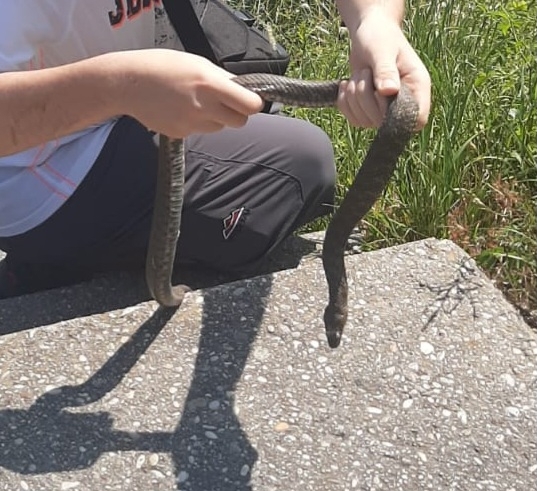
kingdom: Animalia
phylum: Chordata
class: Squamata
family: Colubridae
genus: Natrix
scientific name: Natrix tessellata
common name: Dice snake
